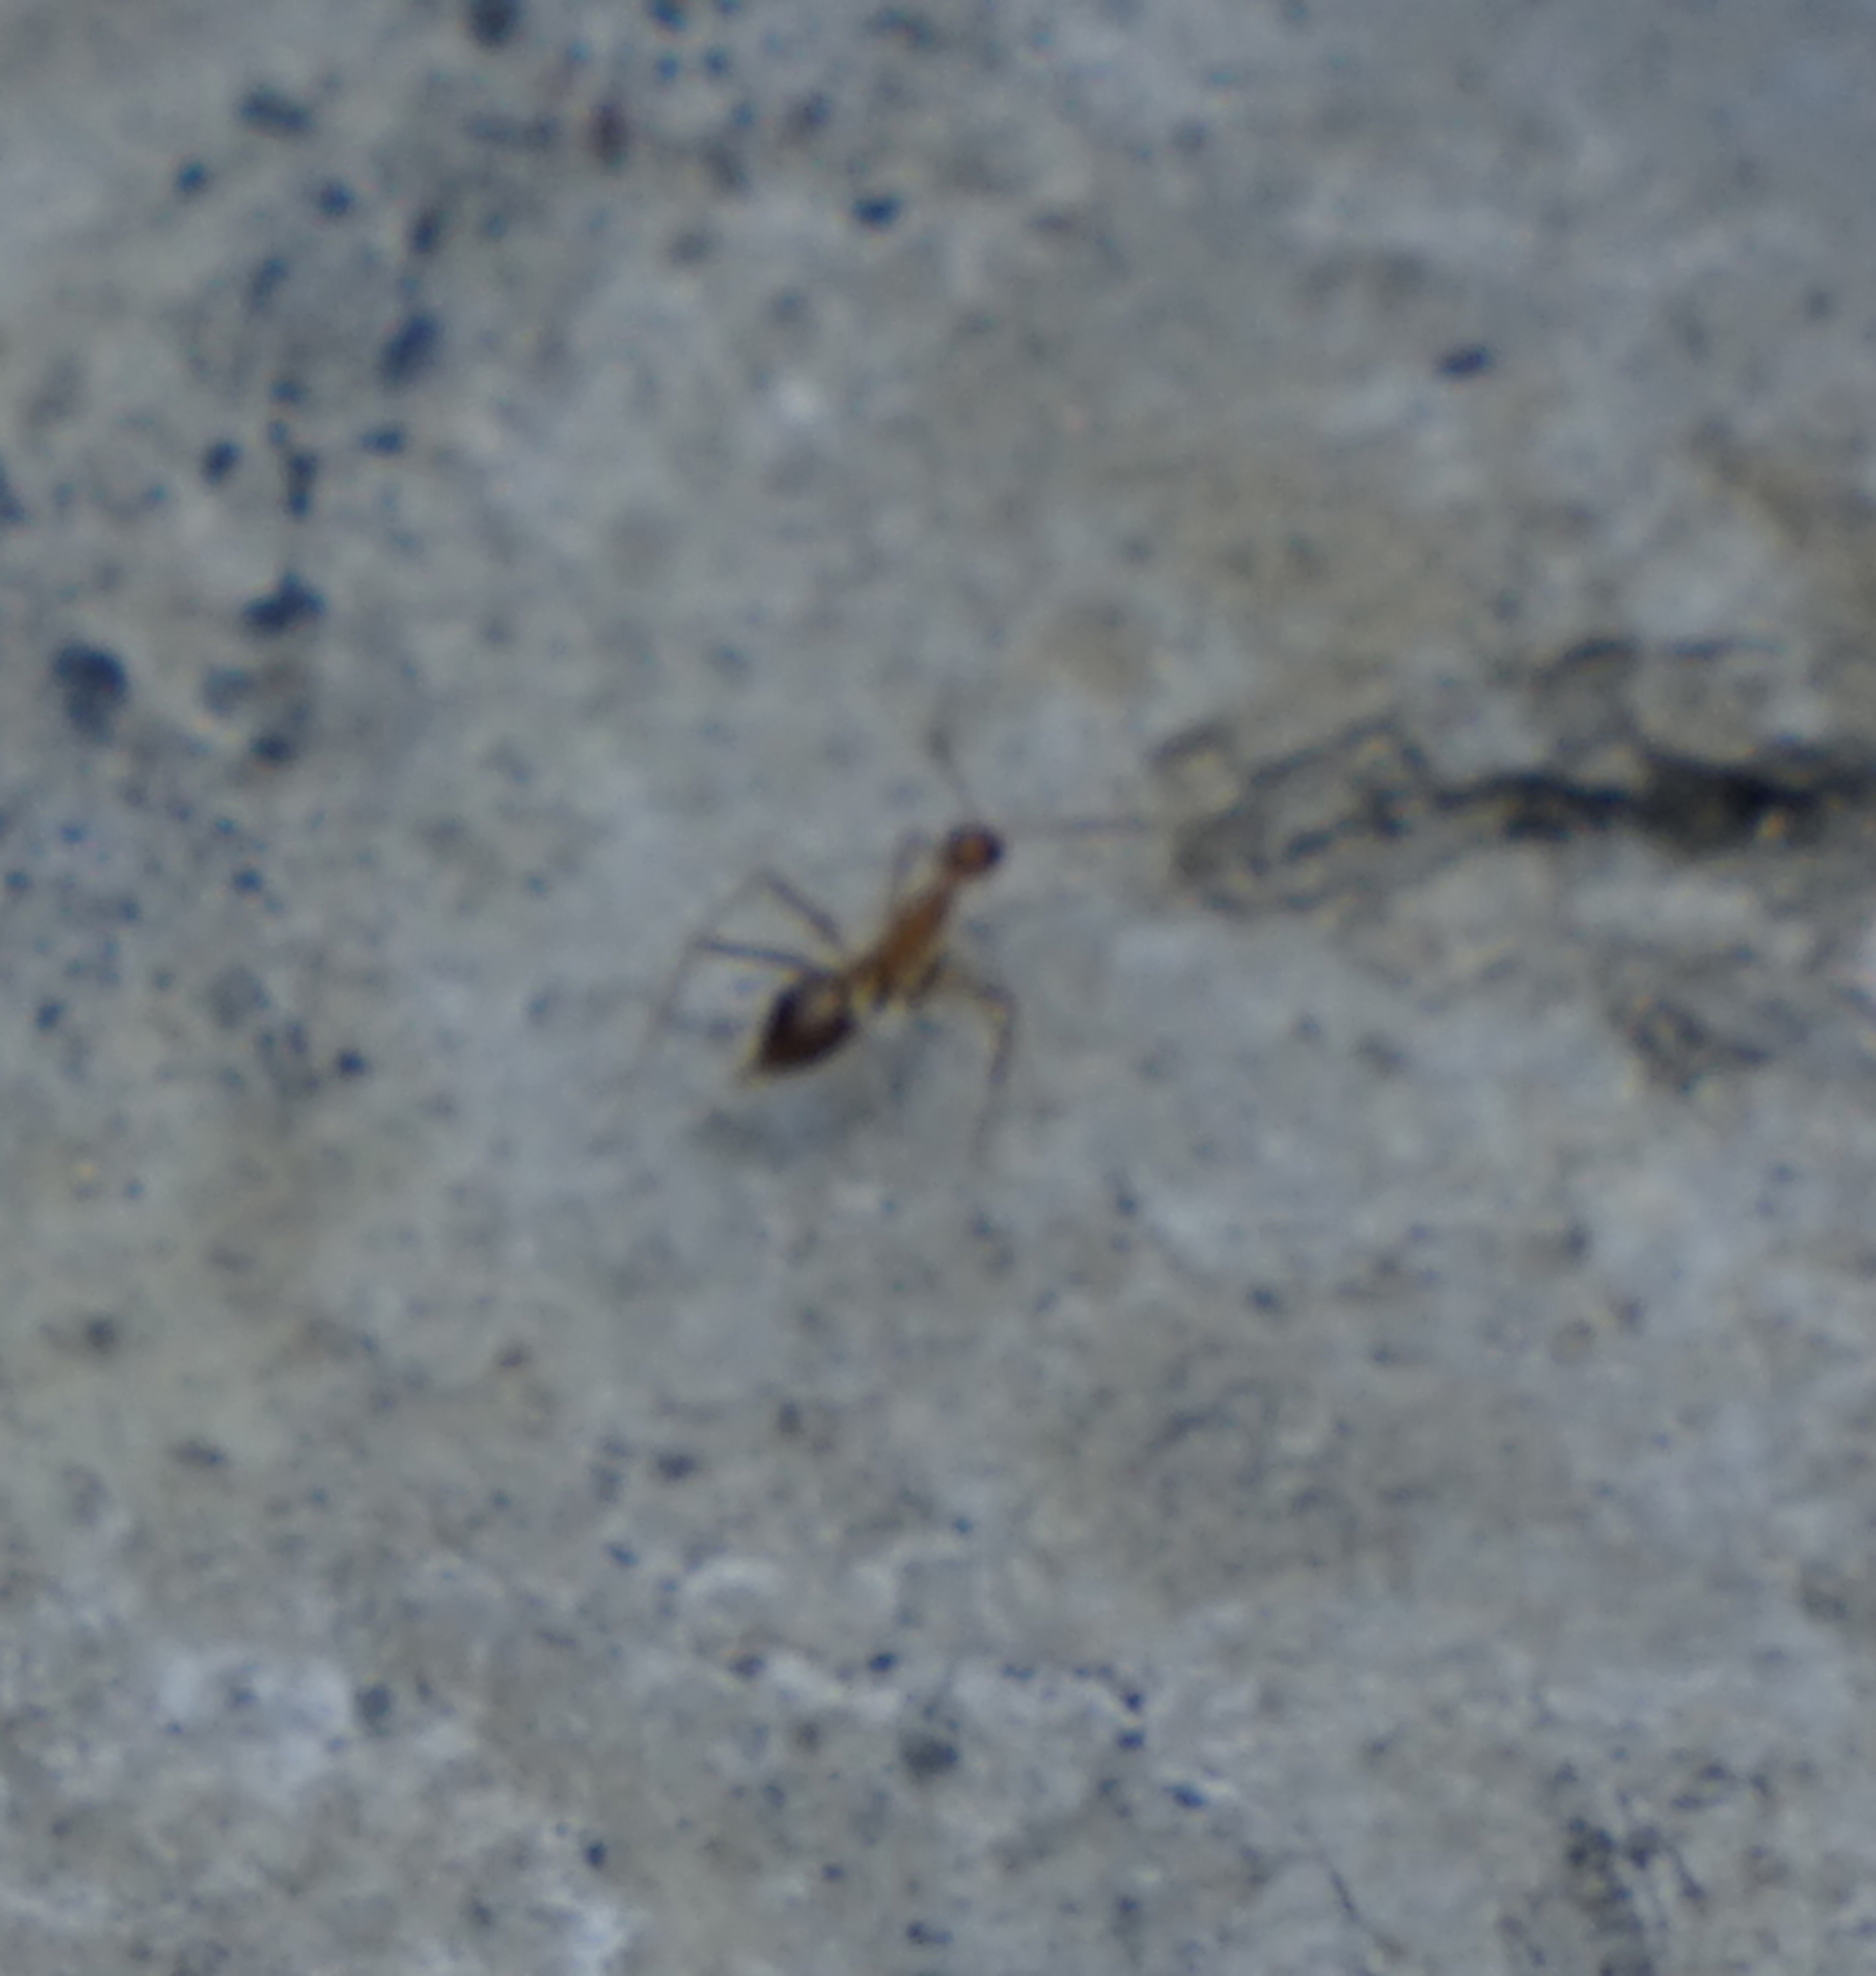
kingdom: Animalia
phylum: Arthropoda
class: Insecta
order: Hymenoptera
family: Formicidae
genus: Anoplolepis
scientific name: Anoplolepis gracilipes
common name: Ant
